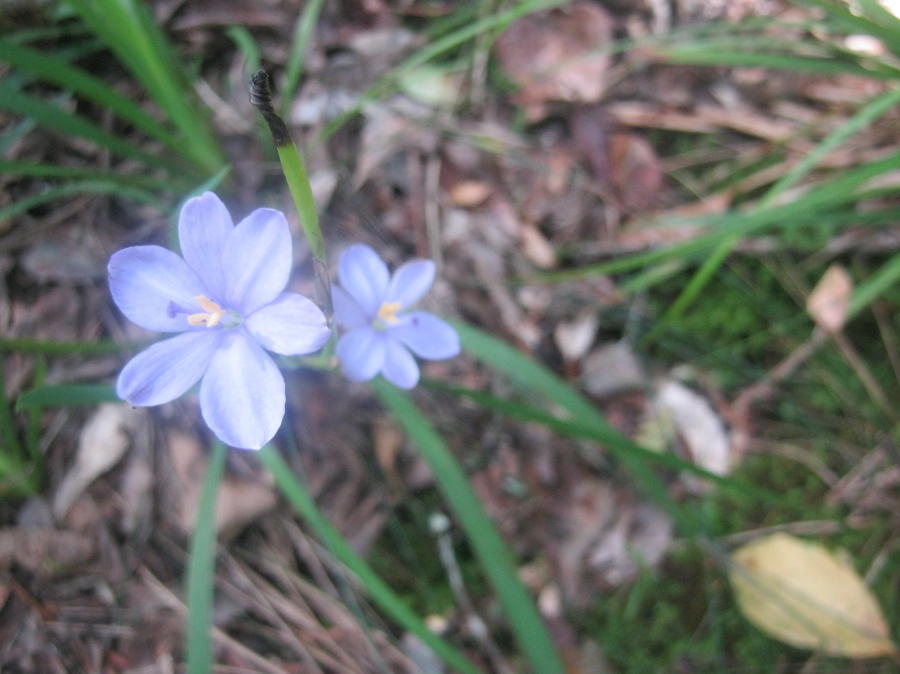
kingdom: Plantae
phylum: Tracheophyta
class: Liliopsida
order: Asparagales
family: Iridaceae
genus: Aristea
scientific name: Aristea ensifolia
